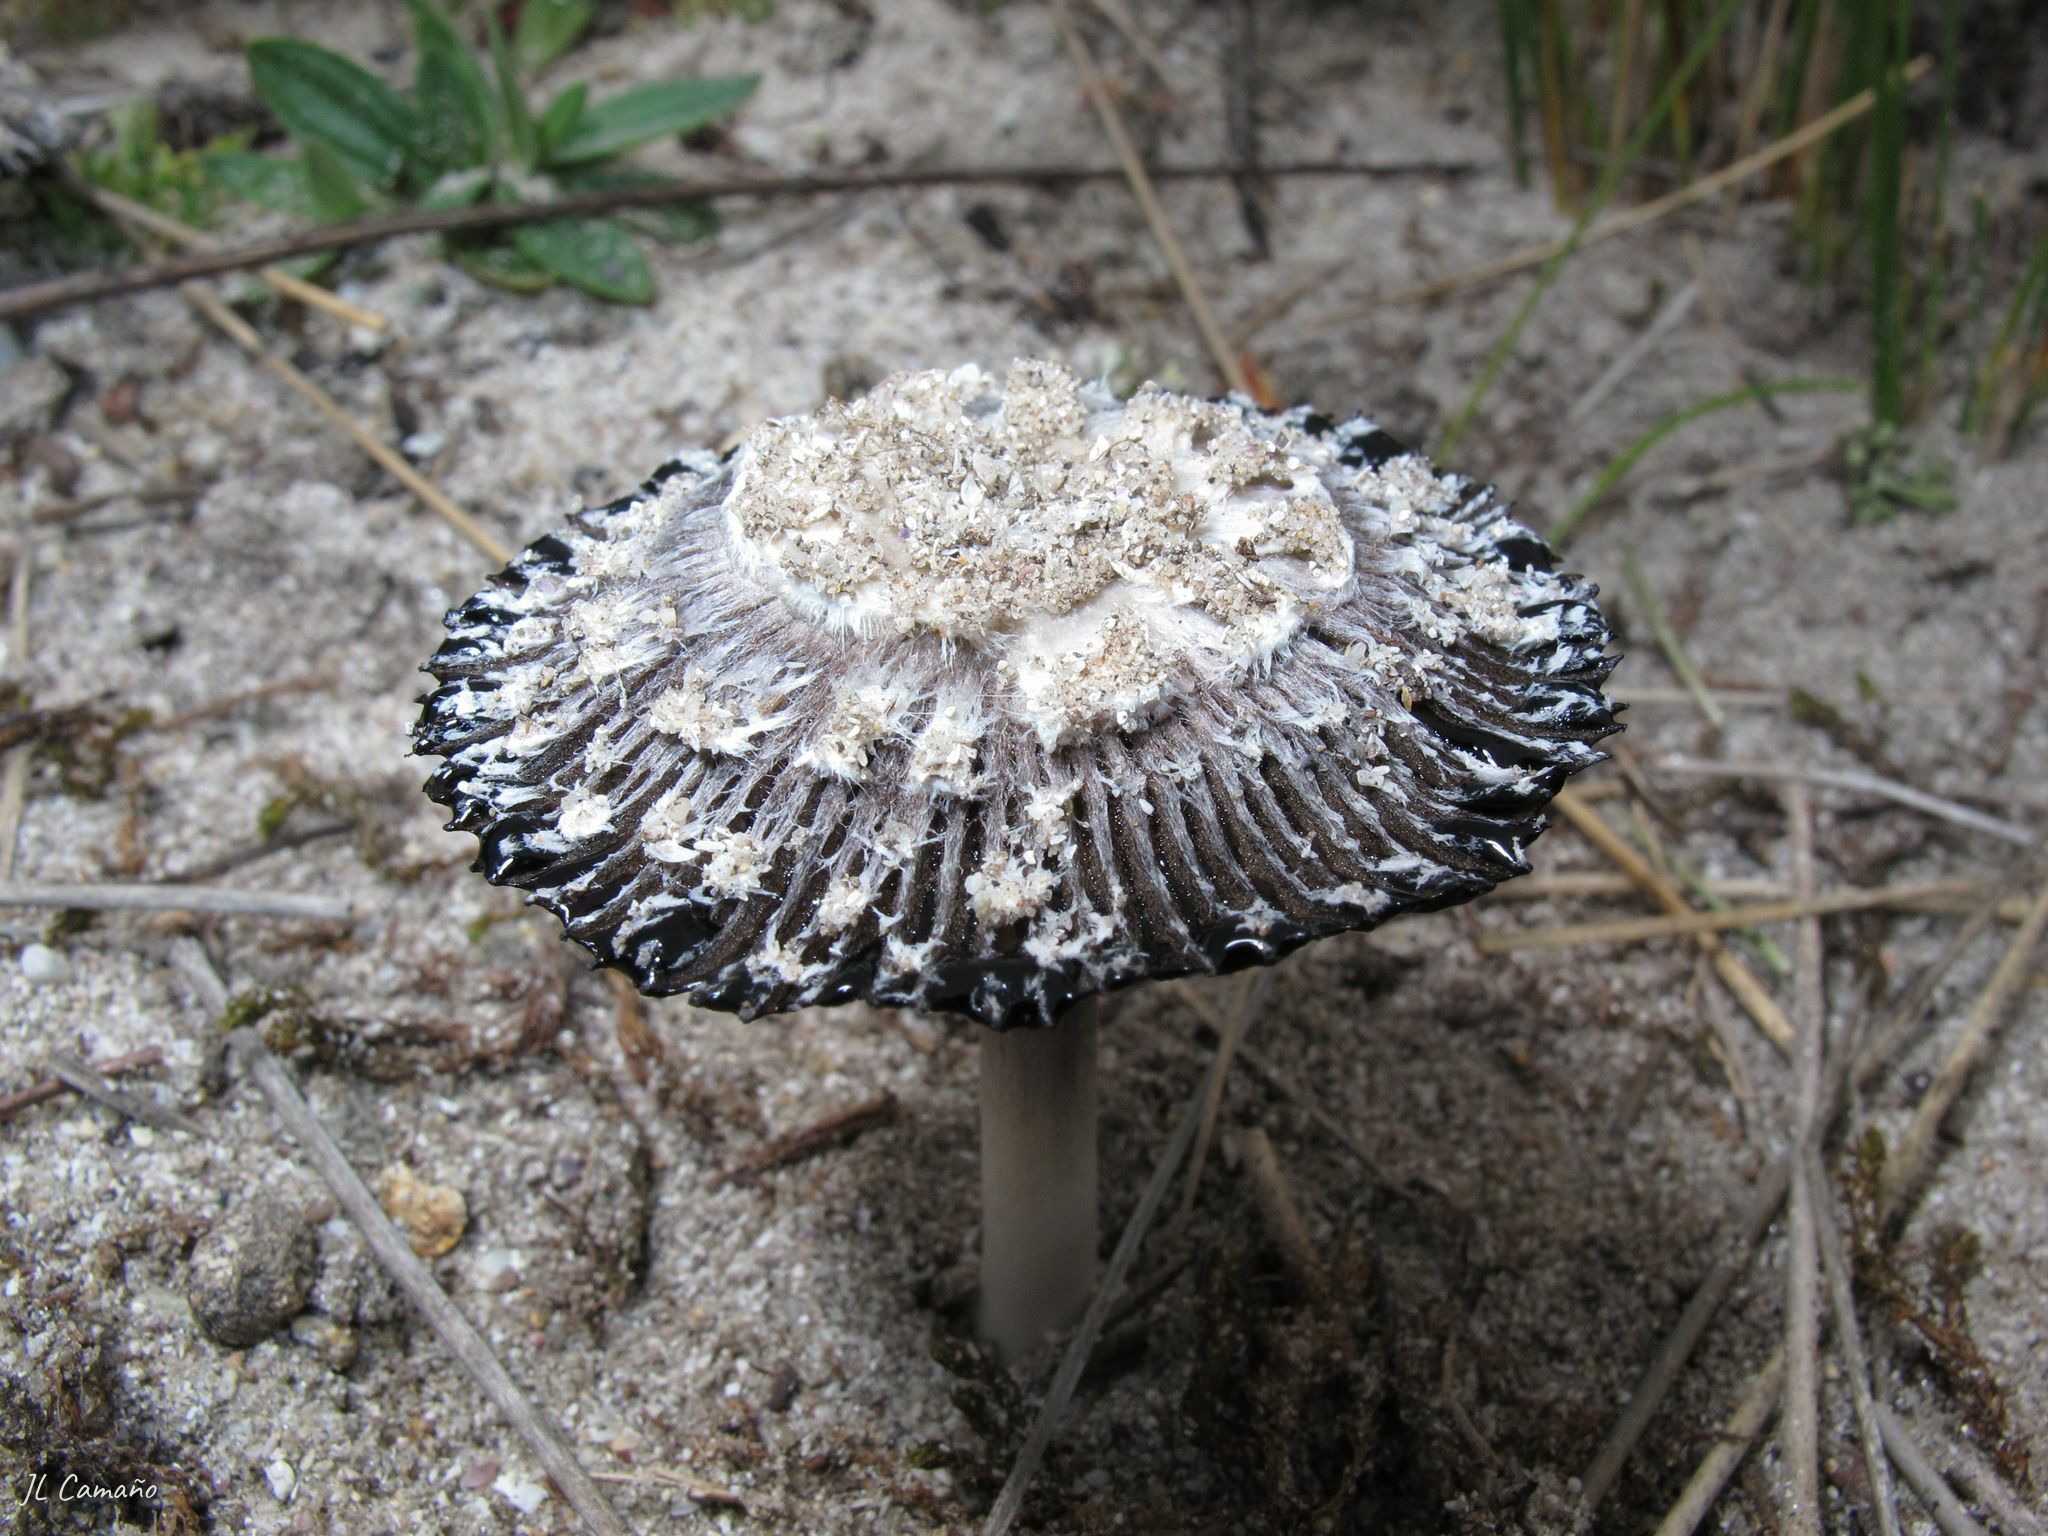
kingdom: Fungi
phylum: Basidiomycota
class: Agaricomycetes
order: Agaricales
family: Agaricaceae
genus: Coprinus
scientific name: Coprinus xerophilus
